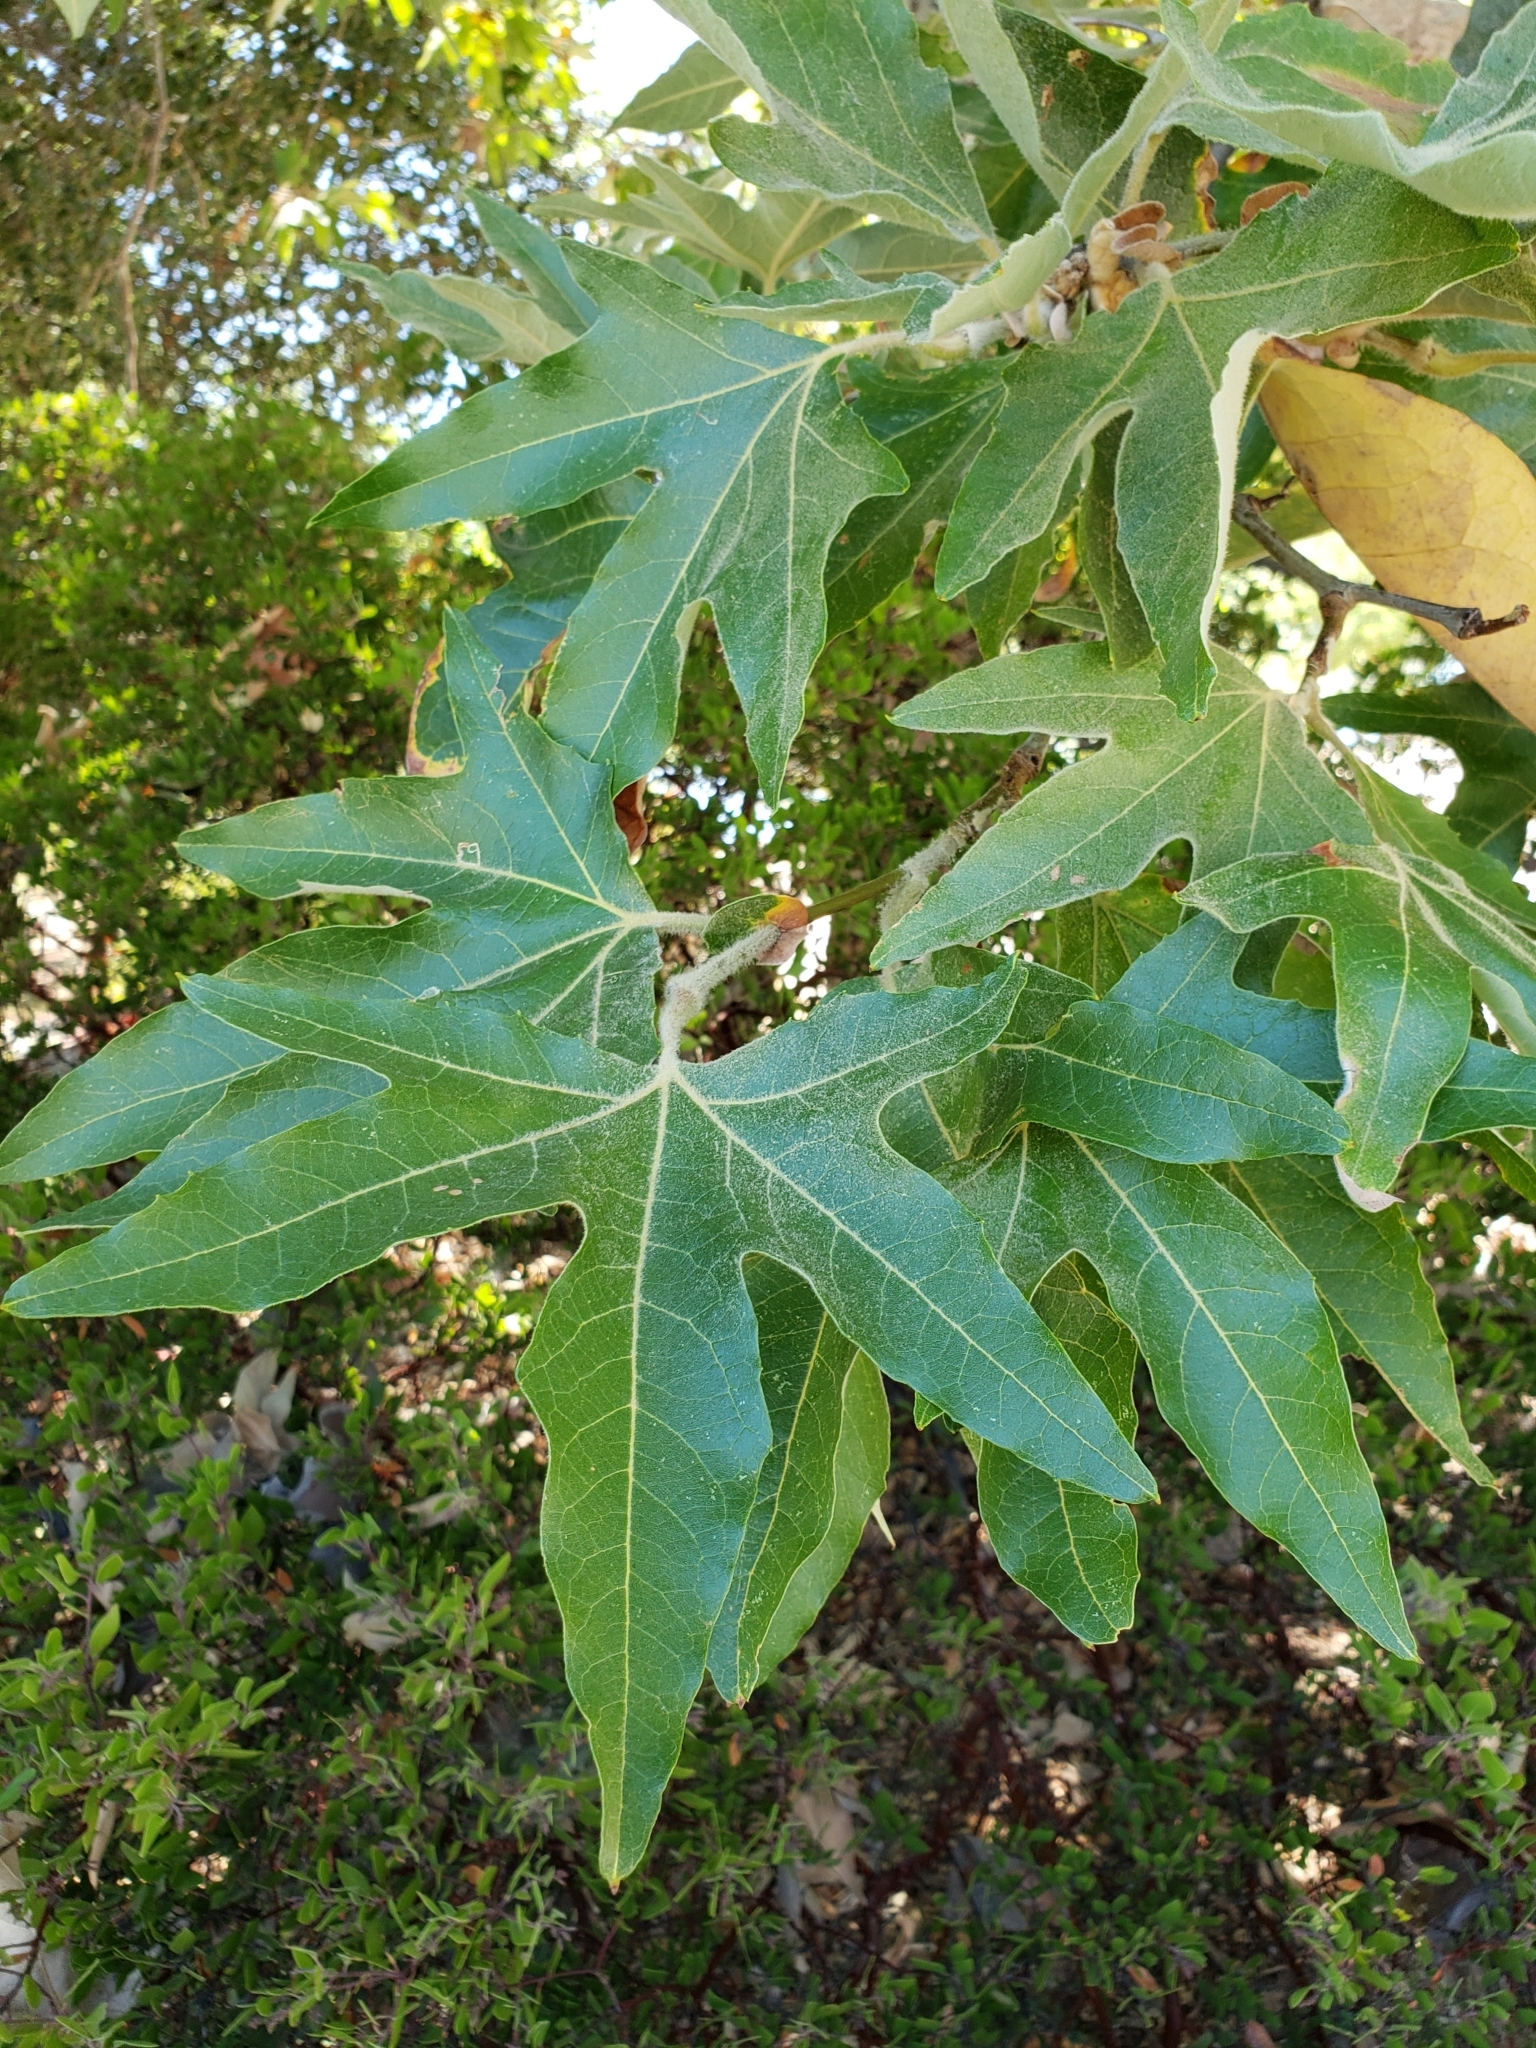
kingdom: Plantae
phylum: Tracheophyta
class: Magnoliopsida
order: Proteales
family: Platanaceae
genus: Platanus
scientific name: Platanus racemosa
